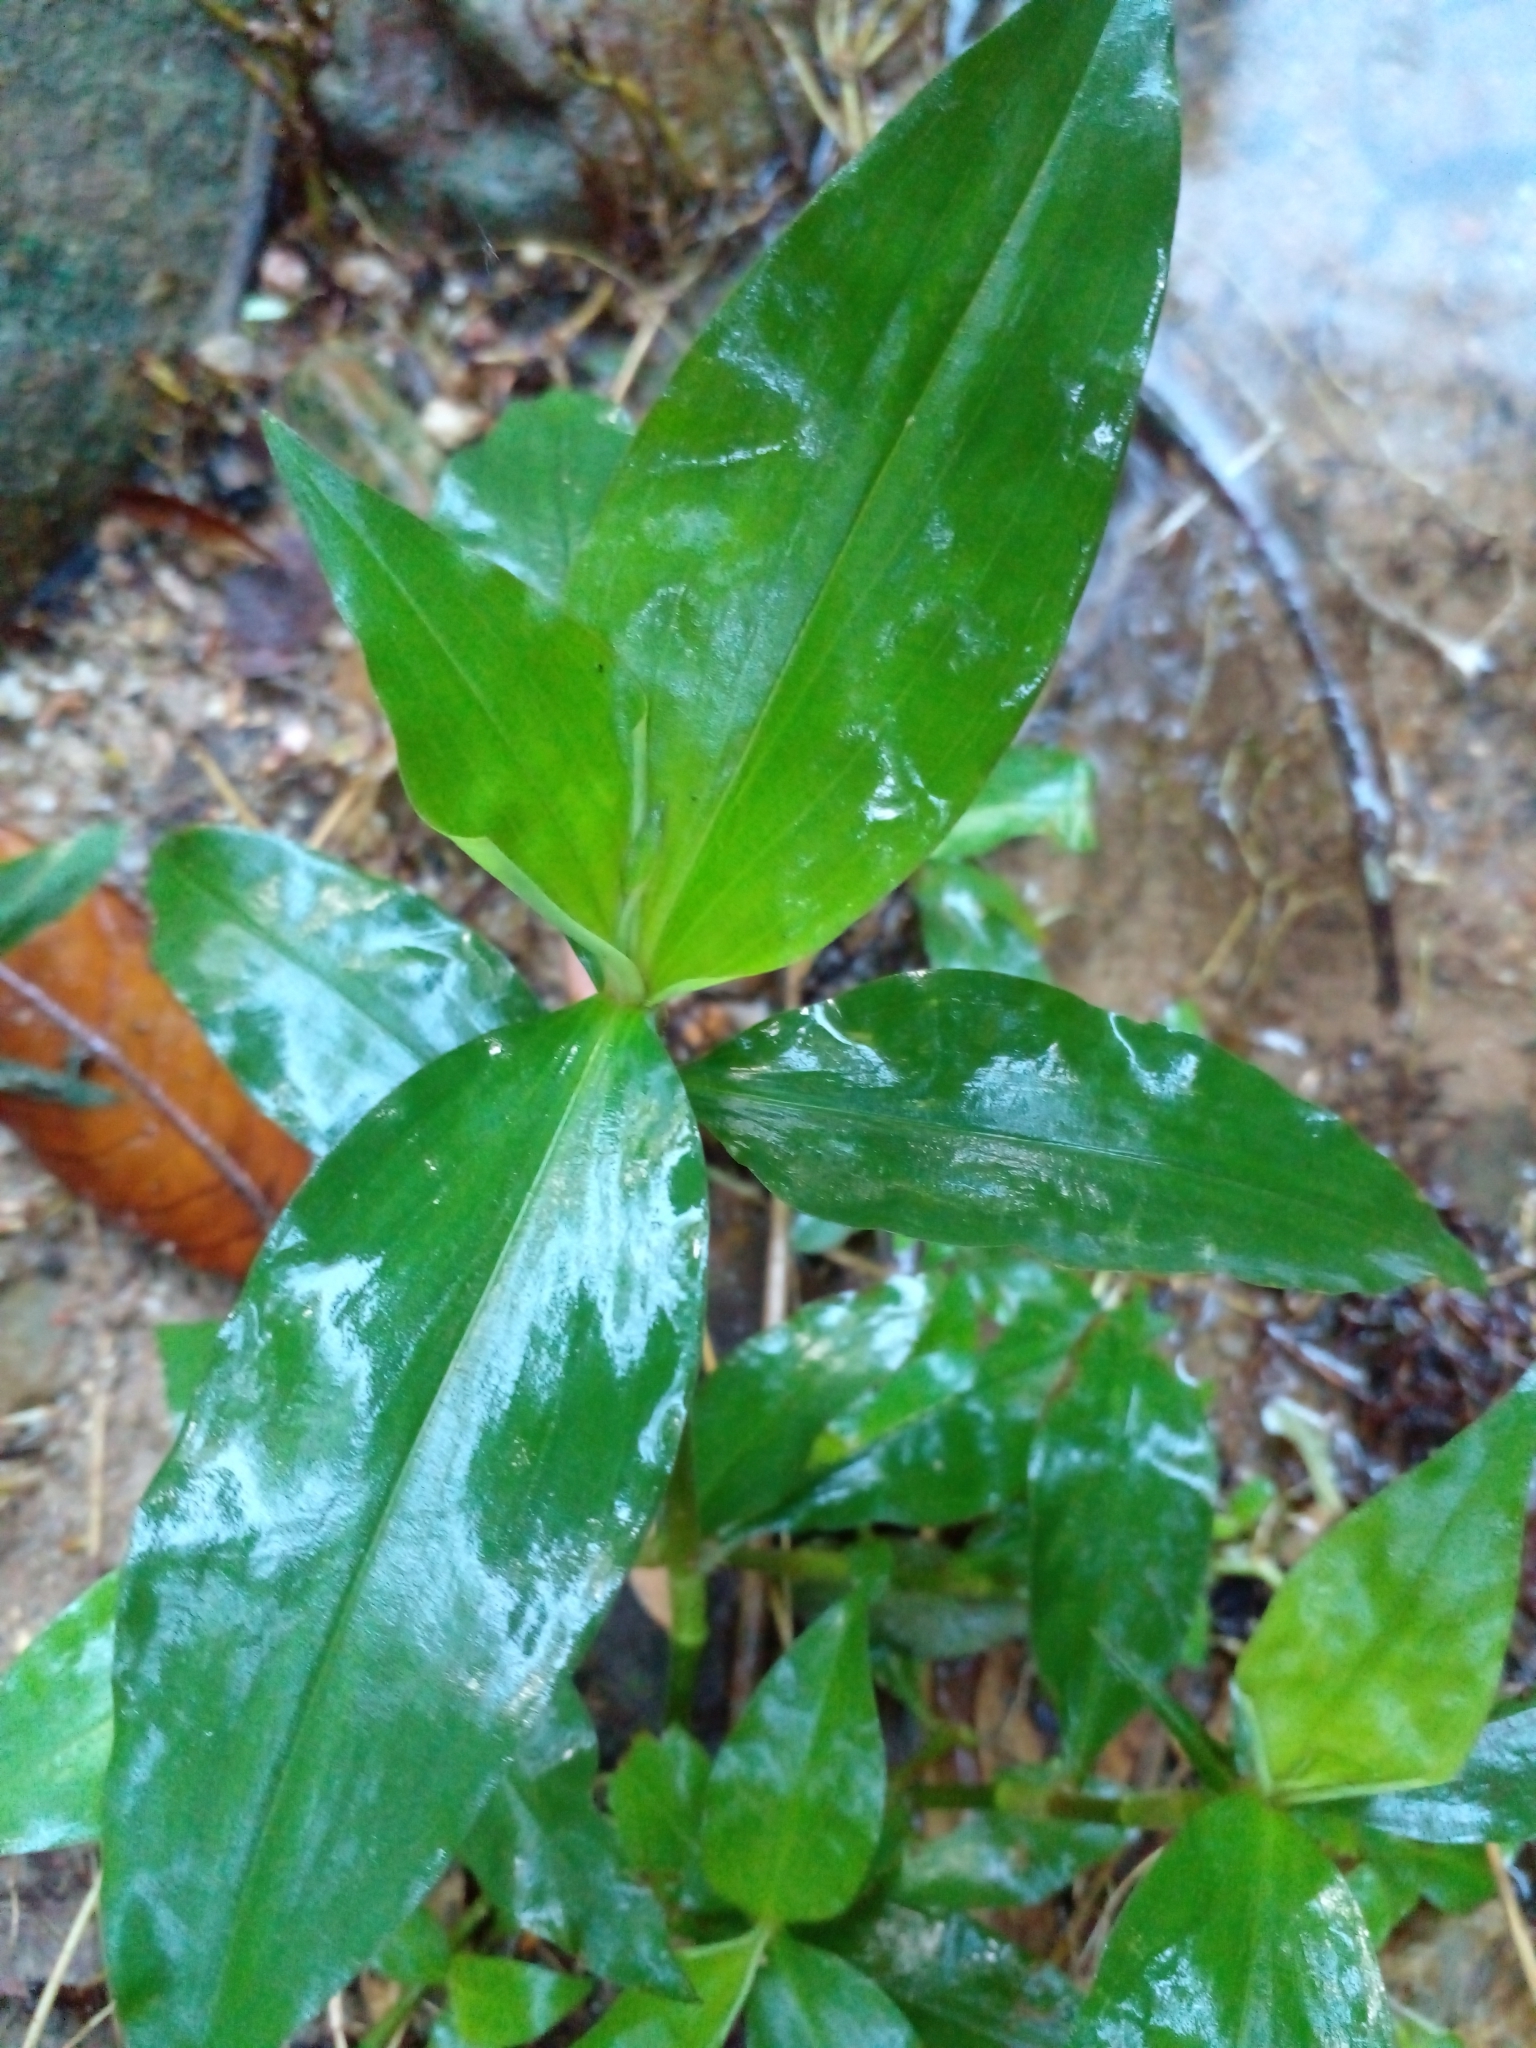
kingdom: Plantae
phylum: Tracheophyta
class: Liliopsida
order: Commelinales
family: Commelinaceae
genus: Commelina
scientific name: Commelina benghalensis
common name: Jio
